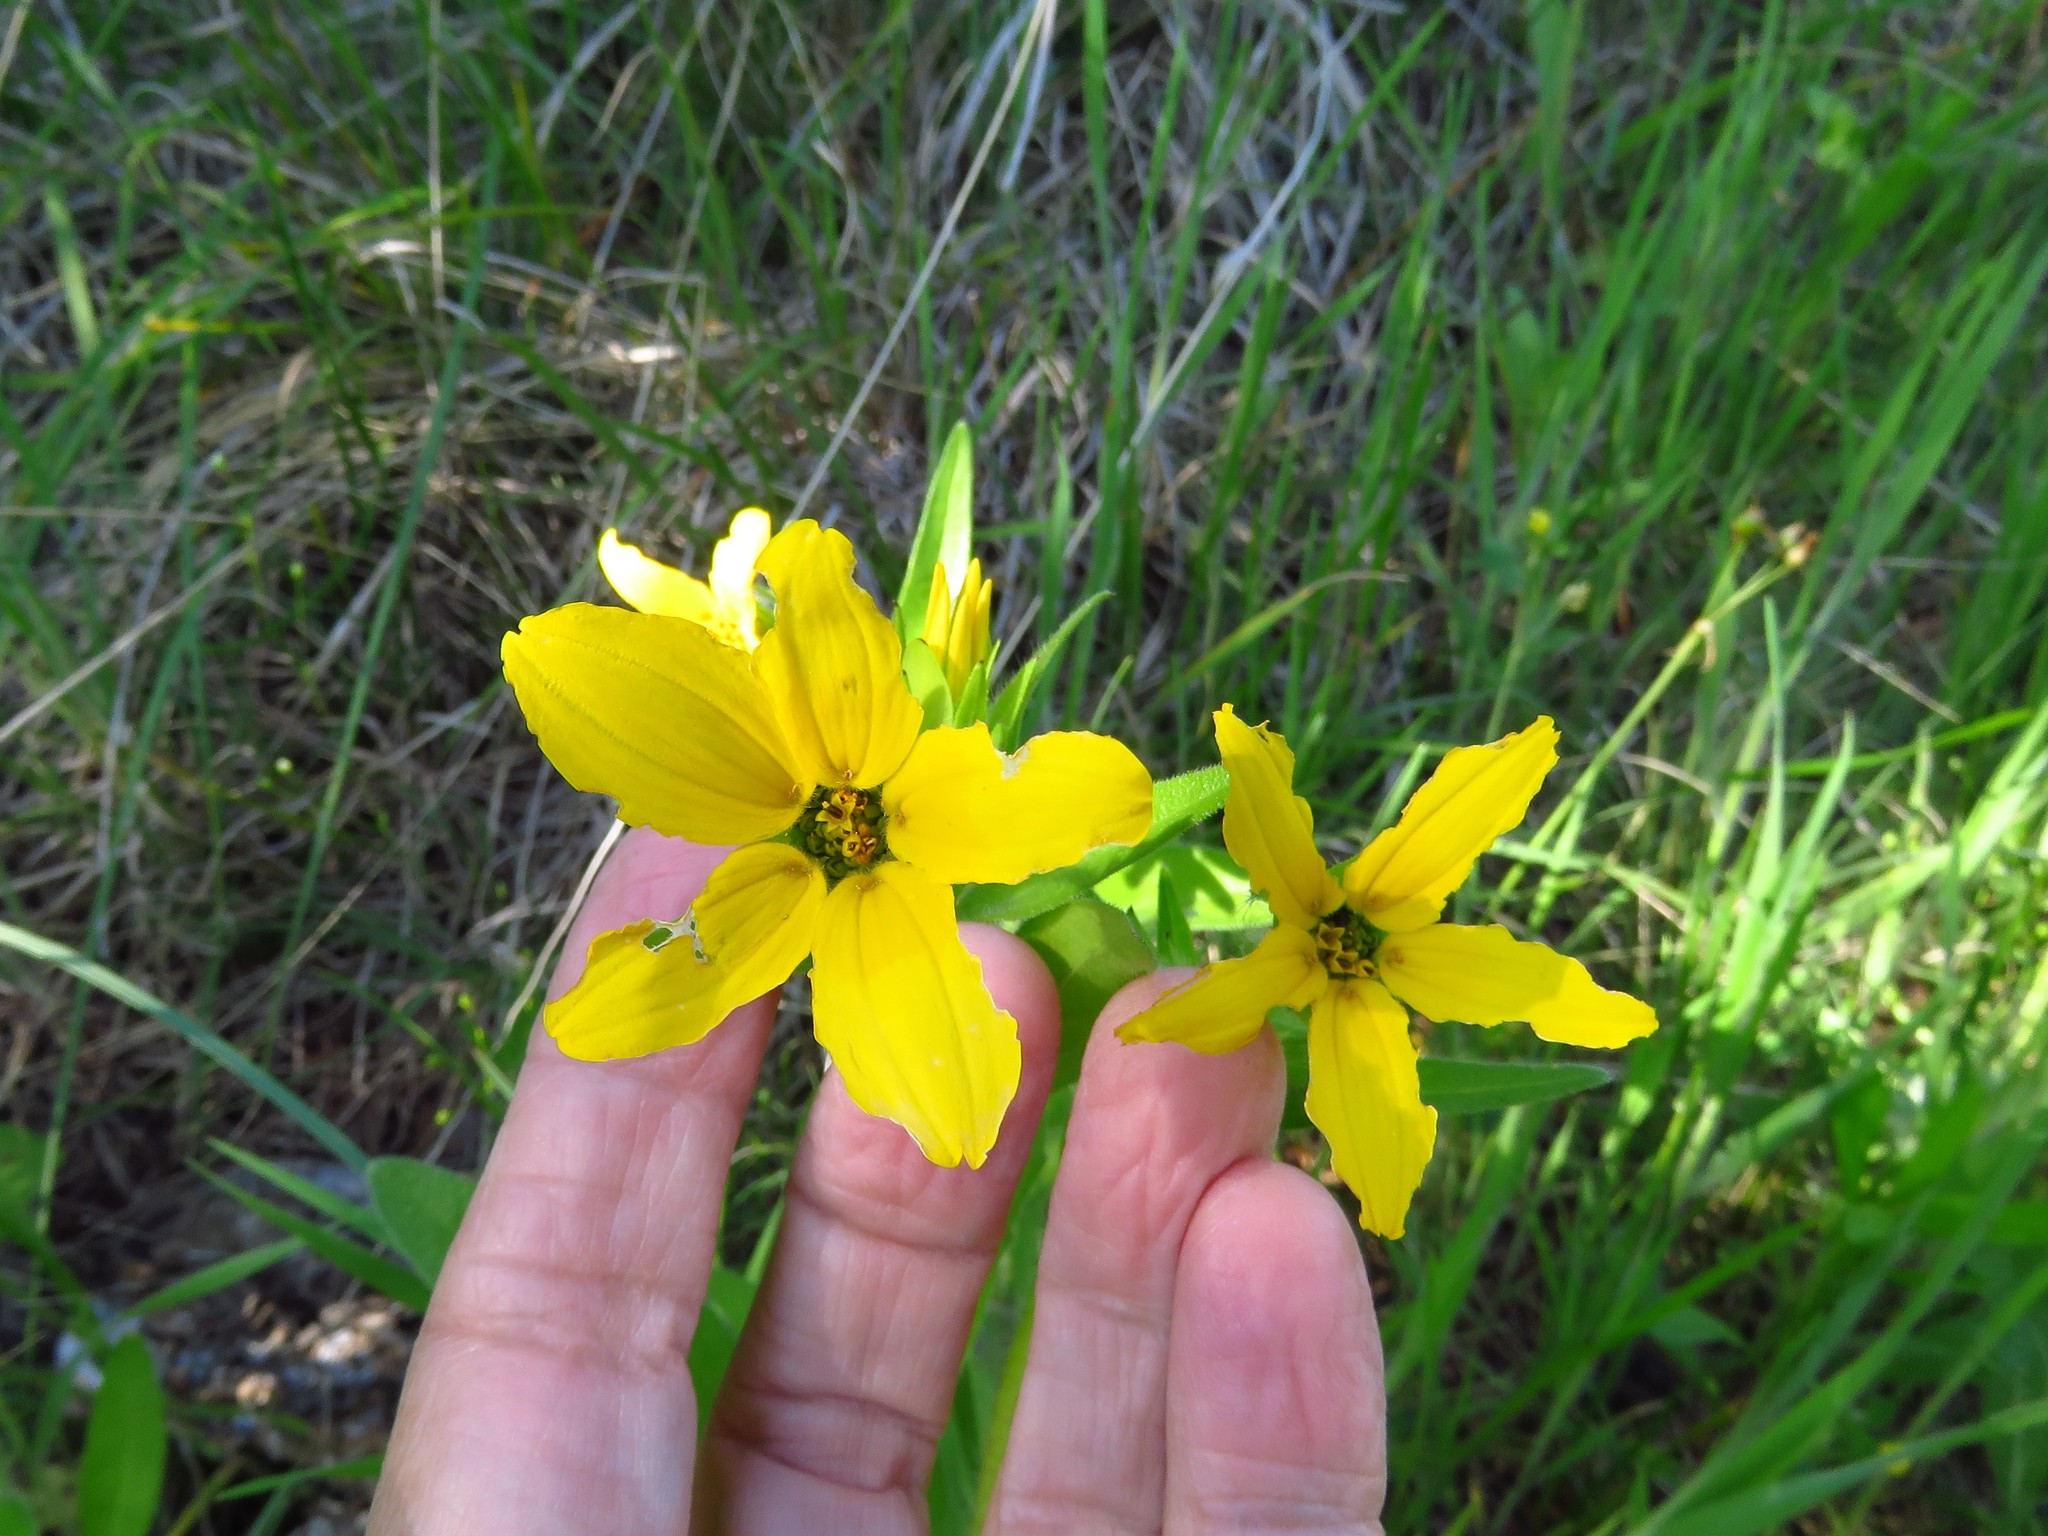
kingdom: Plantae
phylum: Tracheophyta
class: Magnoliopsida
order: Asterales
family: Asteraceae
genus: Lindheimera
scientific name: Lindheimera texana
